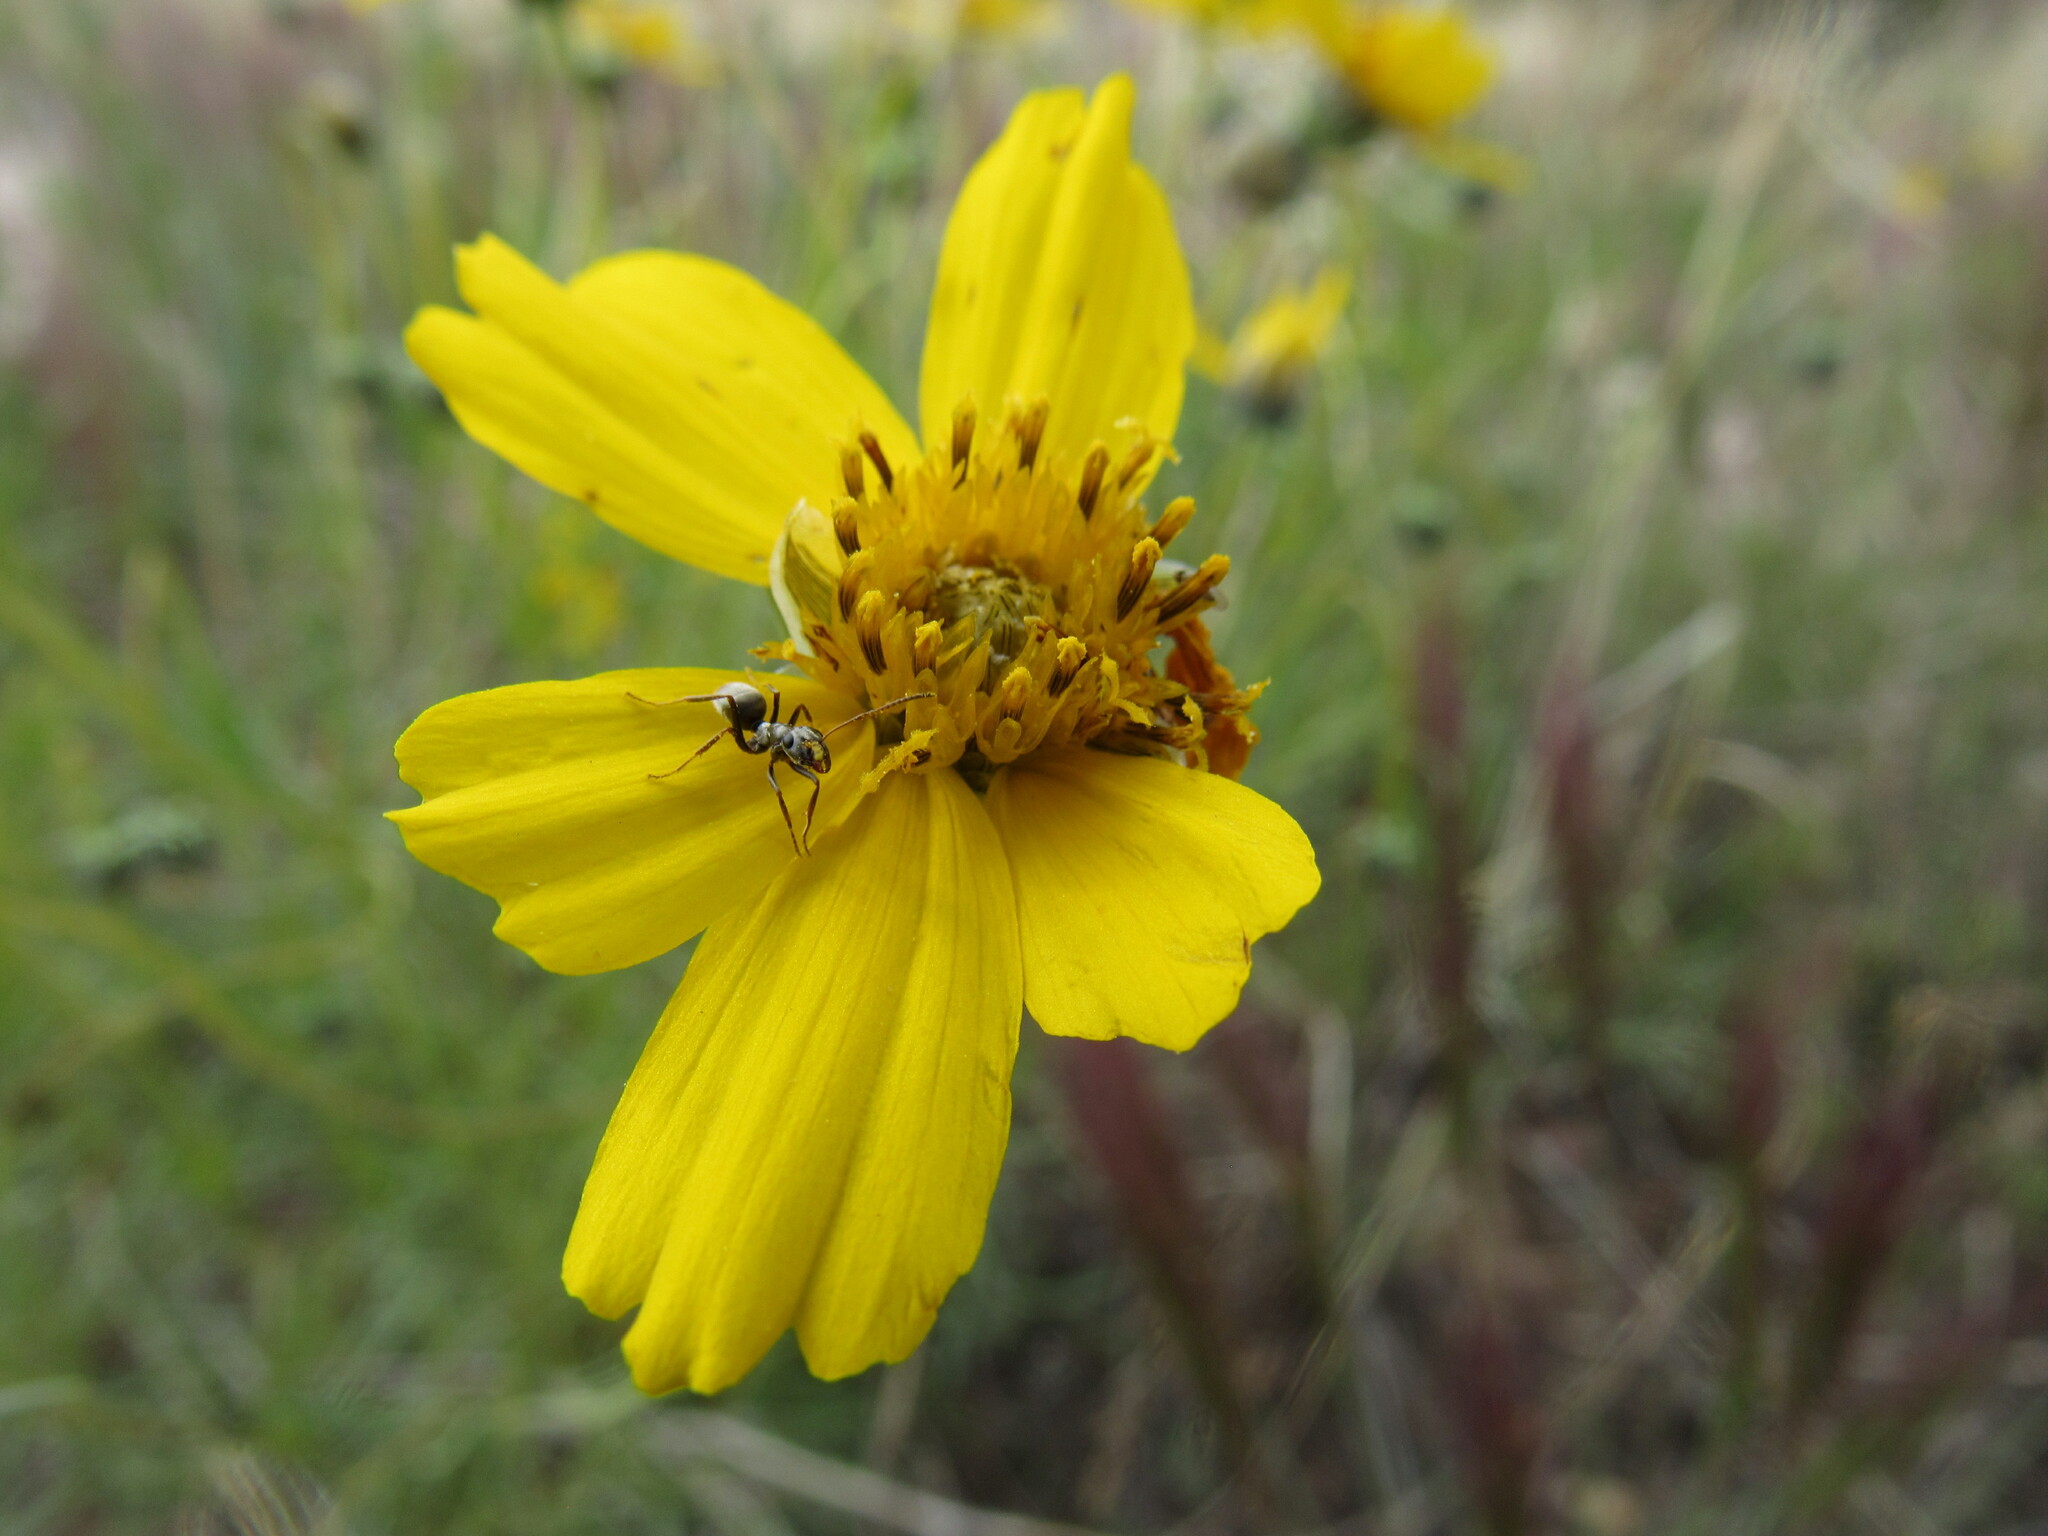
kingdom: Plantae
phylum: Tracheophyta
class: Magnoliopsida
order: Asterales
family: Asteraceae
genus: Thelesperma
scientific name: Thelesperma filifolium
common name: Stiff greenthread
